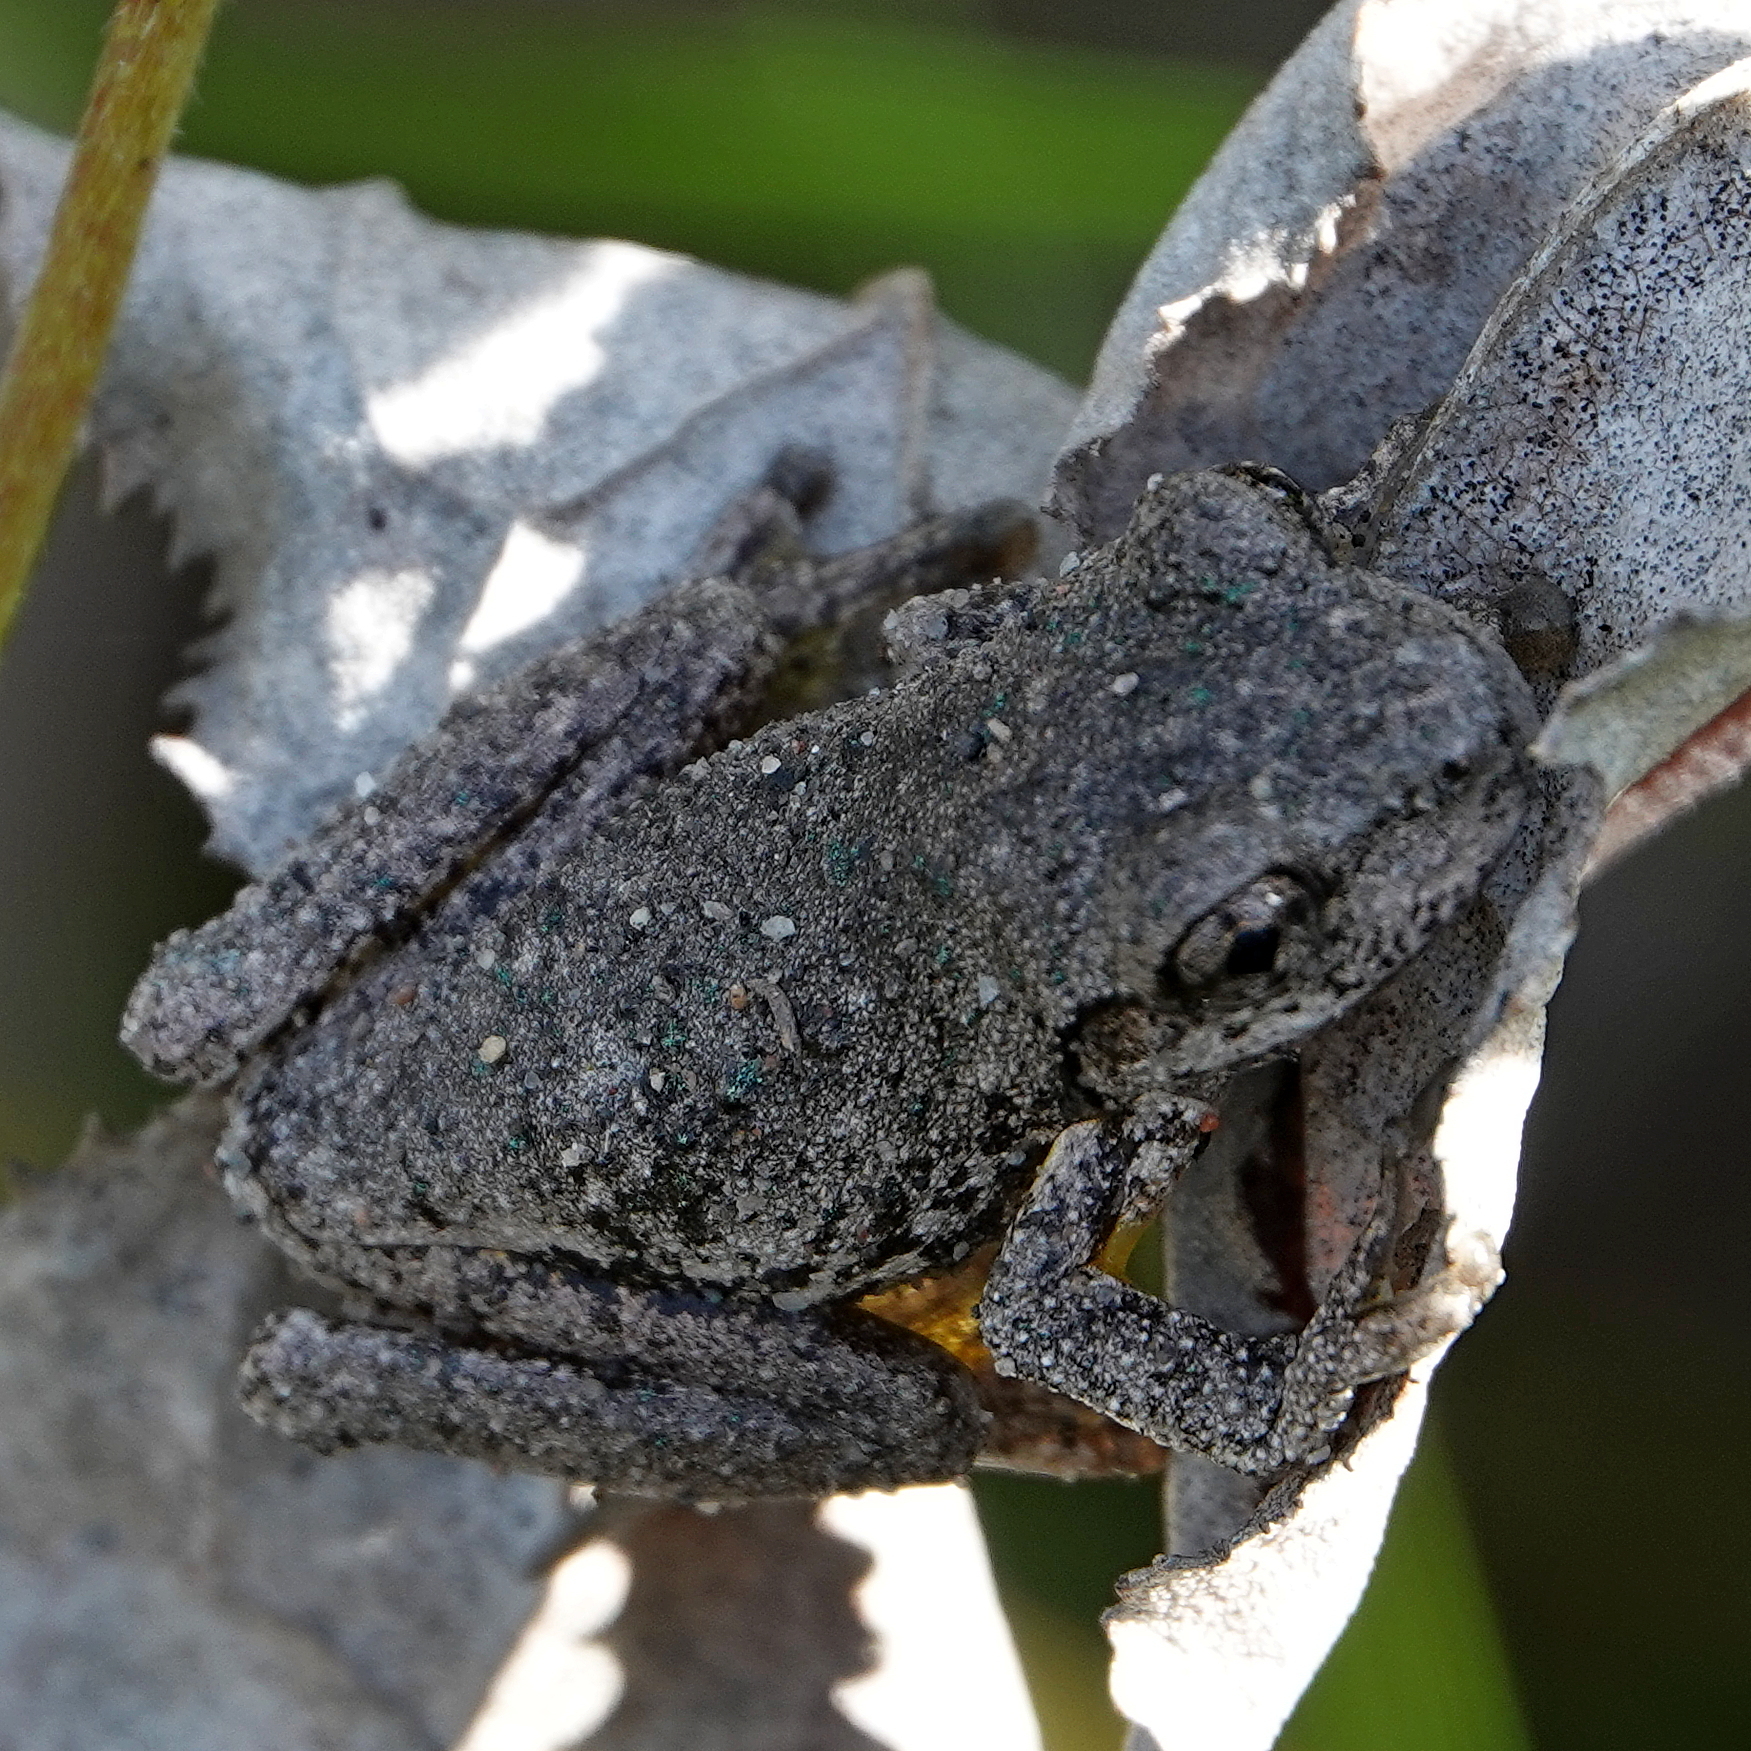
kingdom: Animalia
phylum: Chordata
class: Amphibia
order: Anura
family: Pelodryadidae
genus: Litoria
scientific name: Litoria peronii
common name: Emerald spotted treefrog
